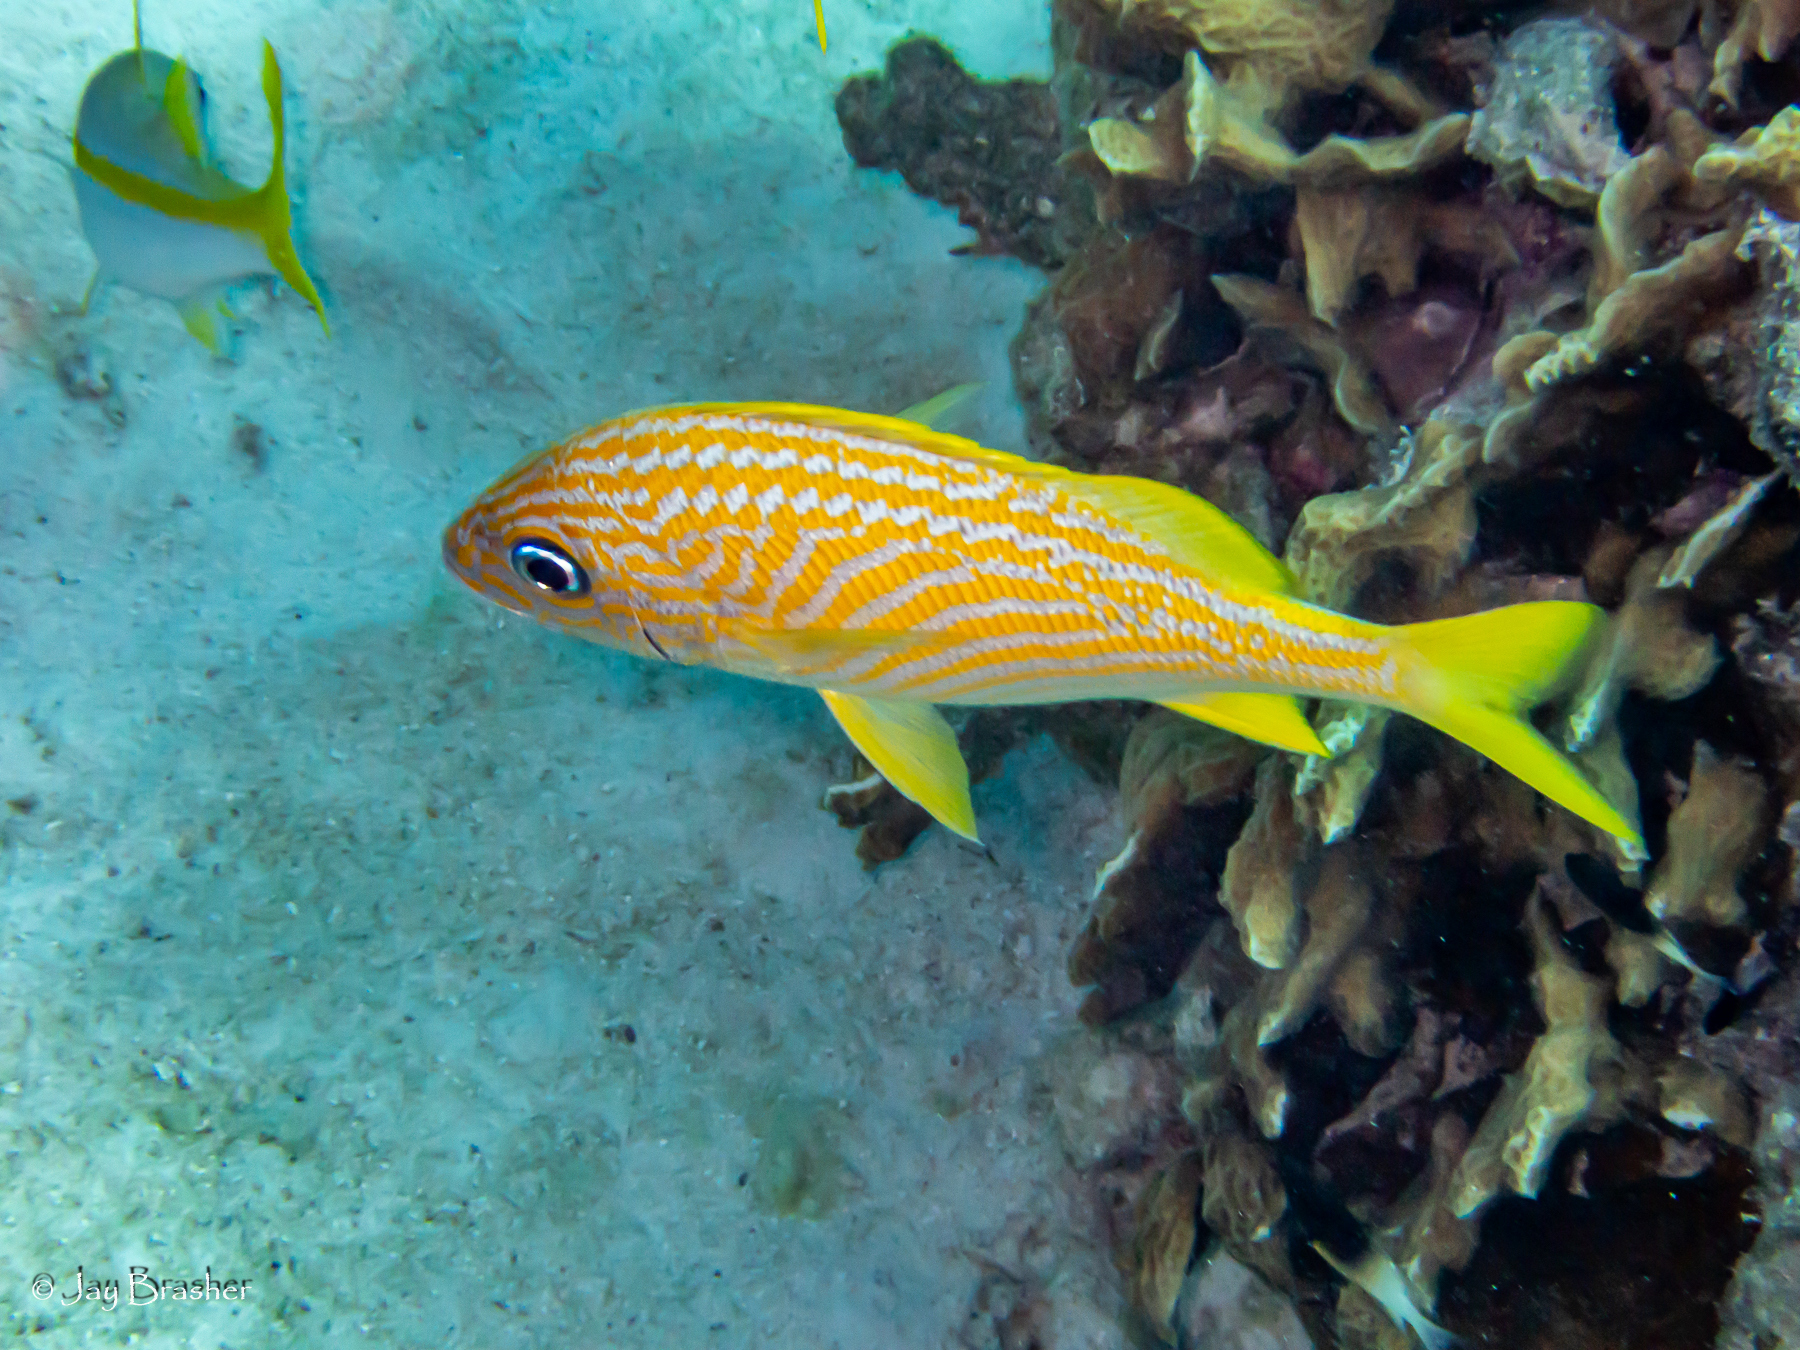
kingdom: Animalia
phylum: Chordata
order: Perciformes
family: Haemulidae
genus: Haemulon
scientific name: Haemulon flavolineatum
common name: French grunt
